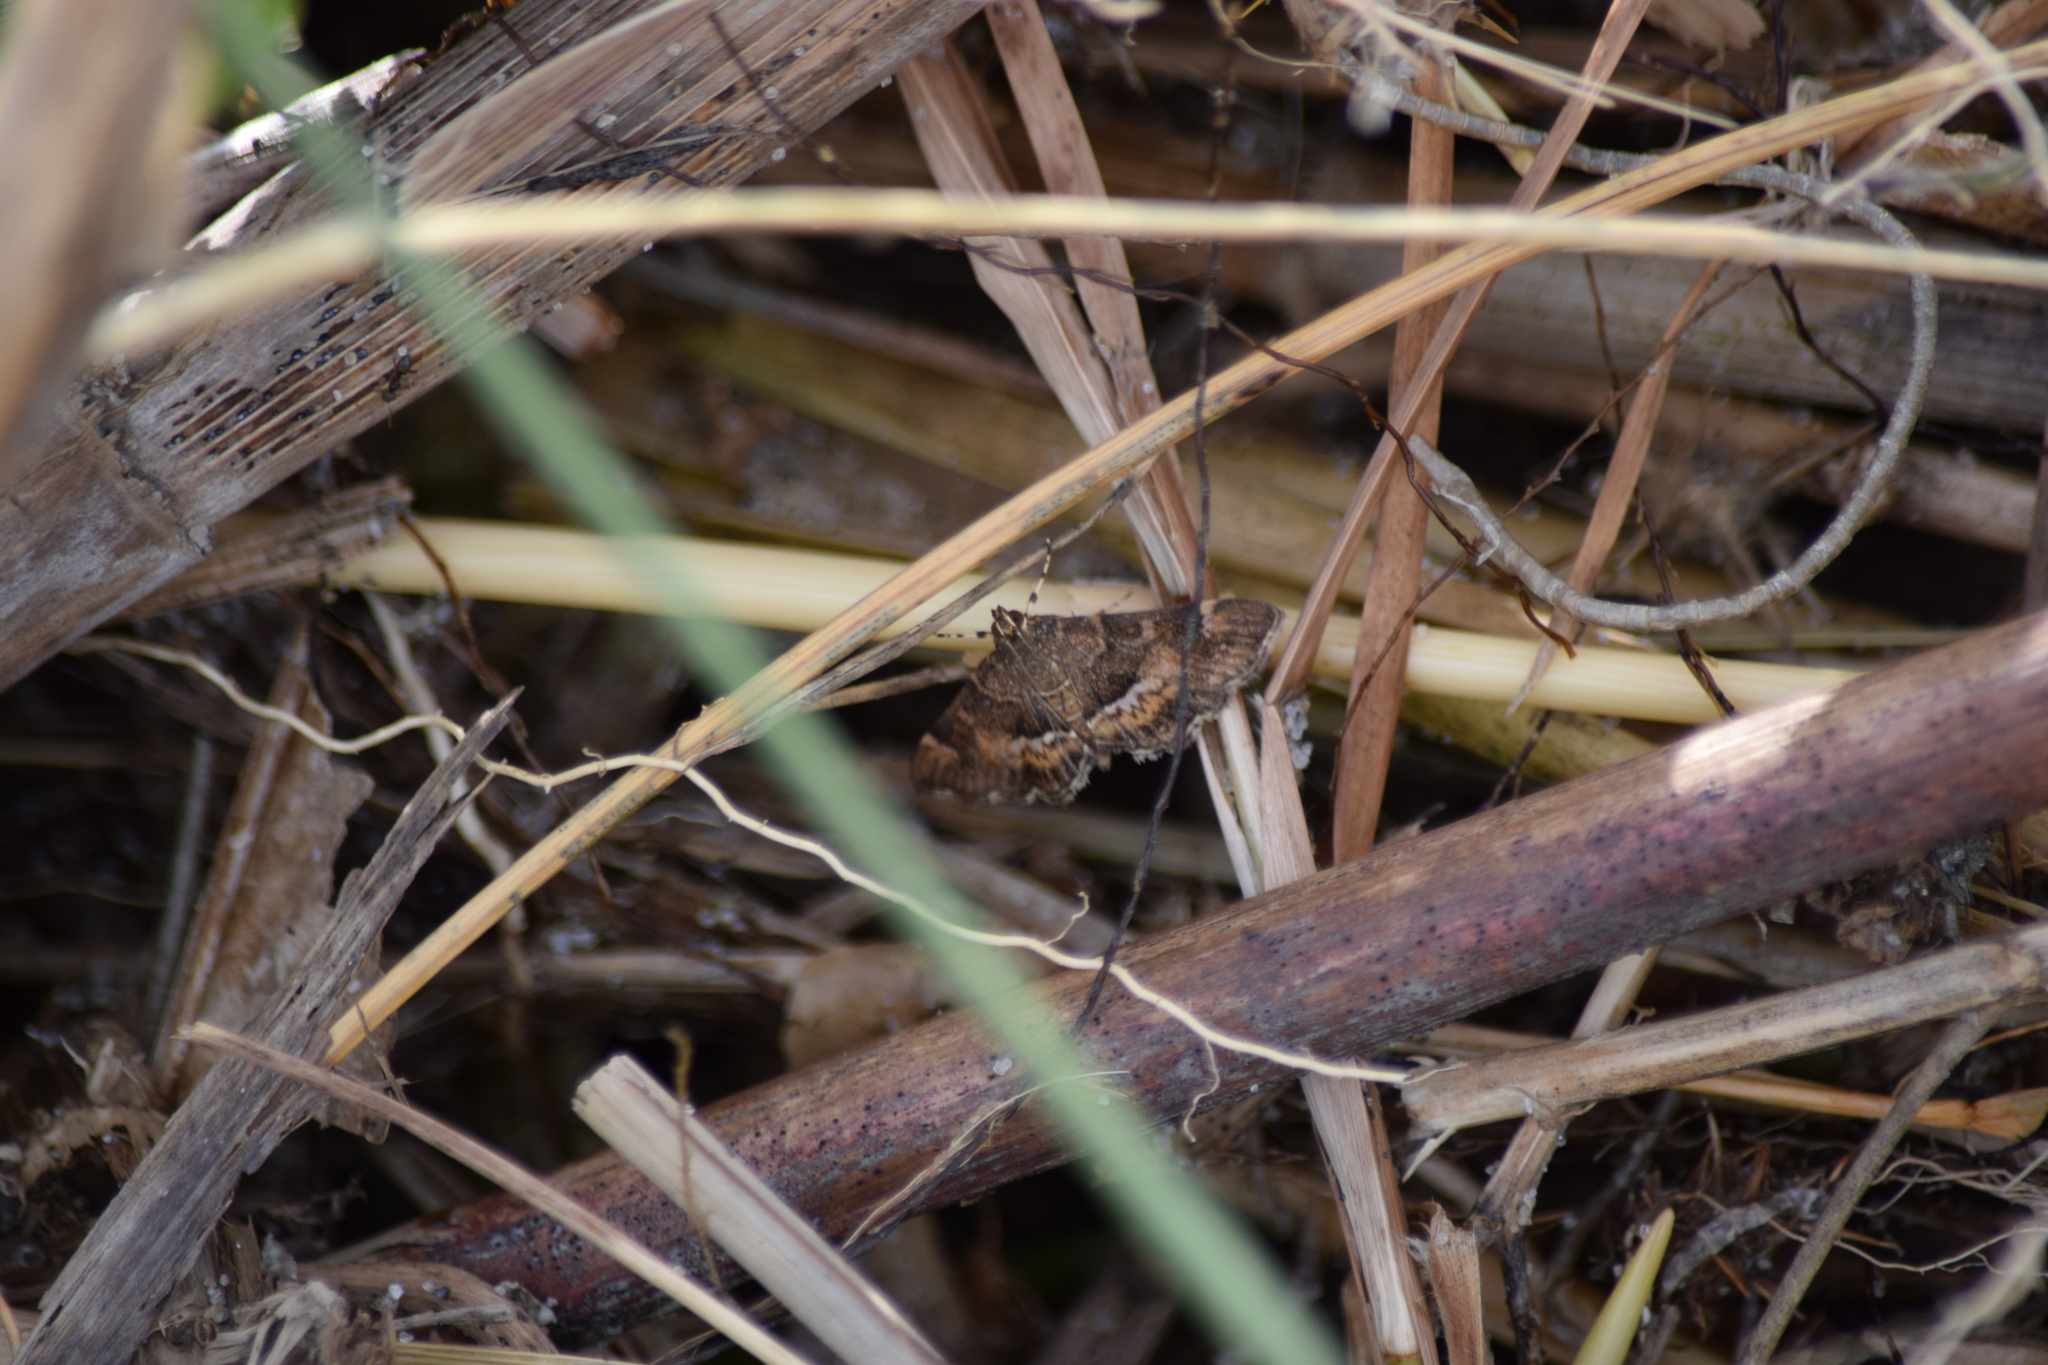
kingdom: Animalia
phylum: Arthropoda
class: Insecta
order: Lepidoptera
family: Crambidae
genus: Hymenia
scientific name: Hymenia perspectalis
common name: Spotted beet webworm
